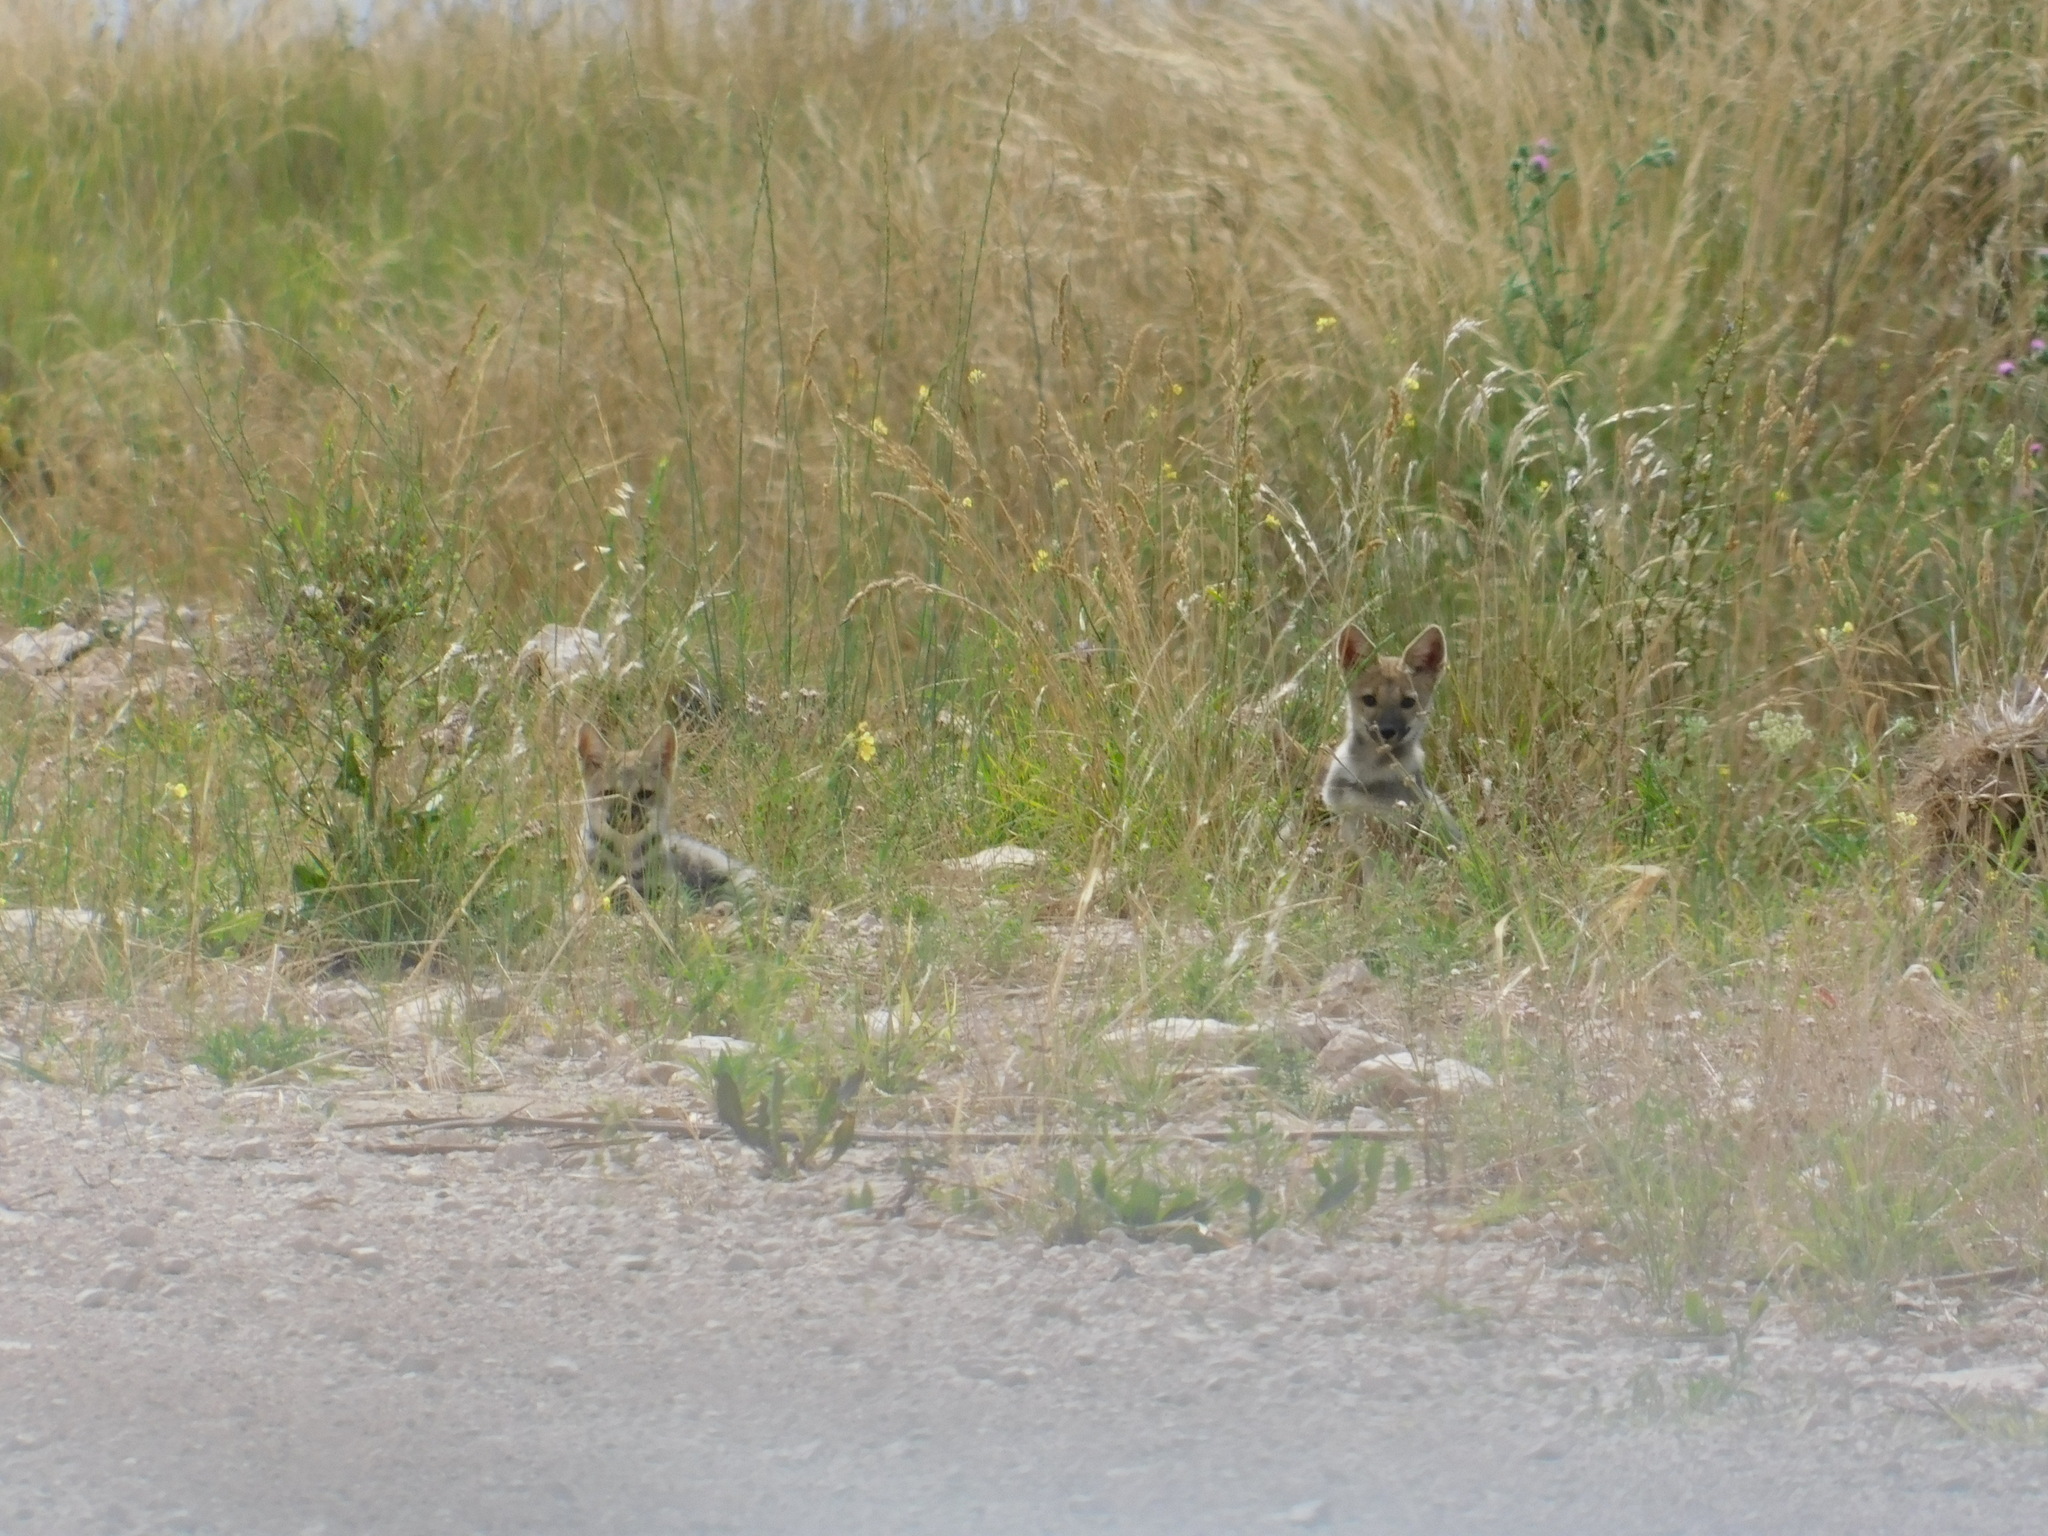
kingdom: Animalia
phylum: Chordata
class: Mammalia
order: Carnivora
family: Canidae
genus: Lycalopex
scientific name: Lycalopex gymnocercus
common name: Pampas fox
